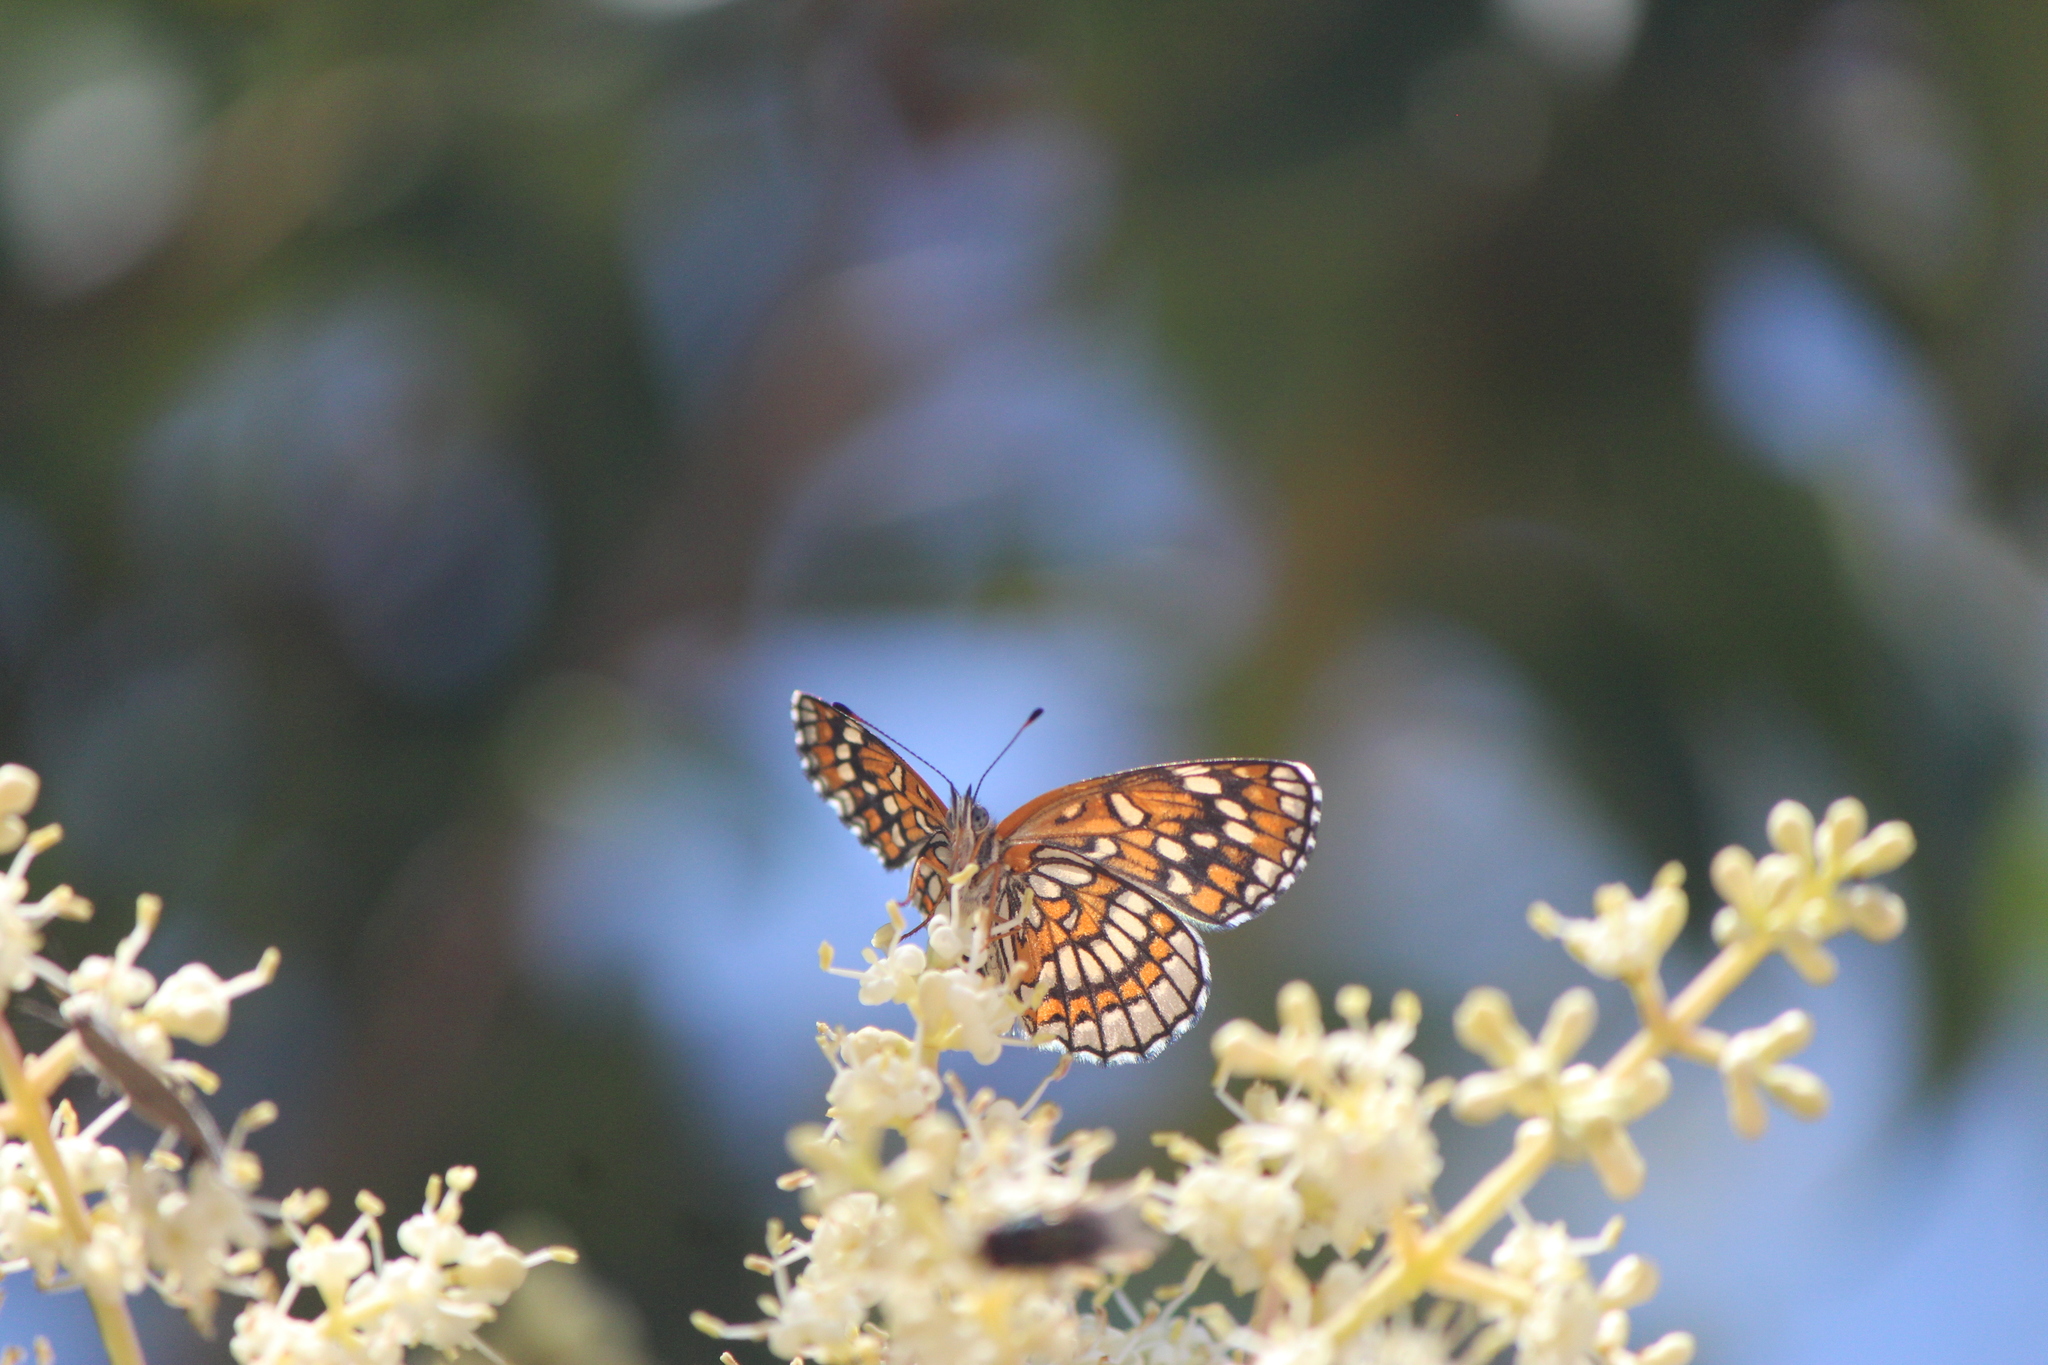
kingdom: Animalia
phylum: Arthropoda
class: Insecta
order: Lepidoptera
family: Nymphalidae
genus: Thessalia
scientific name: Thessalia theona
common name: Nymphalid moth
